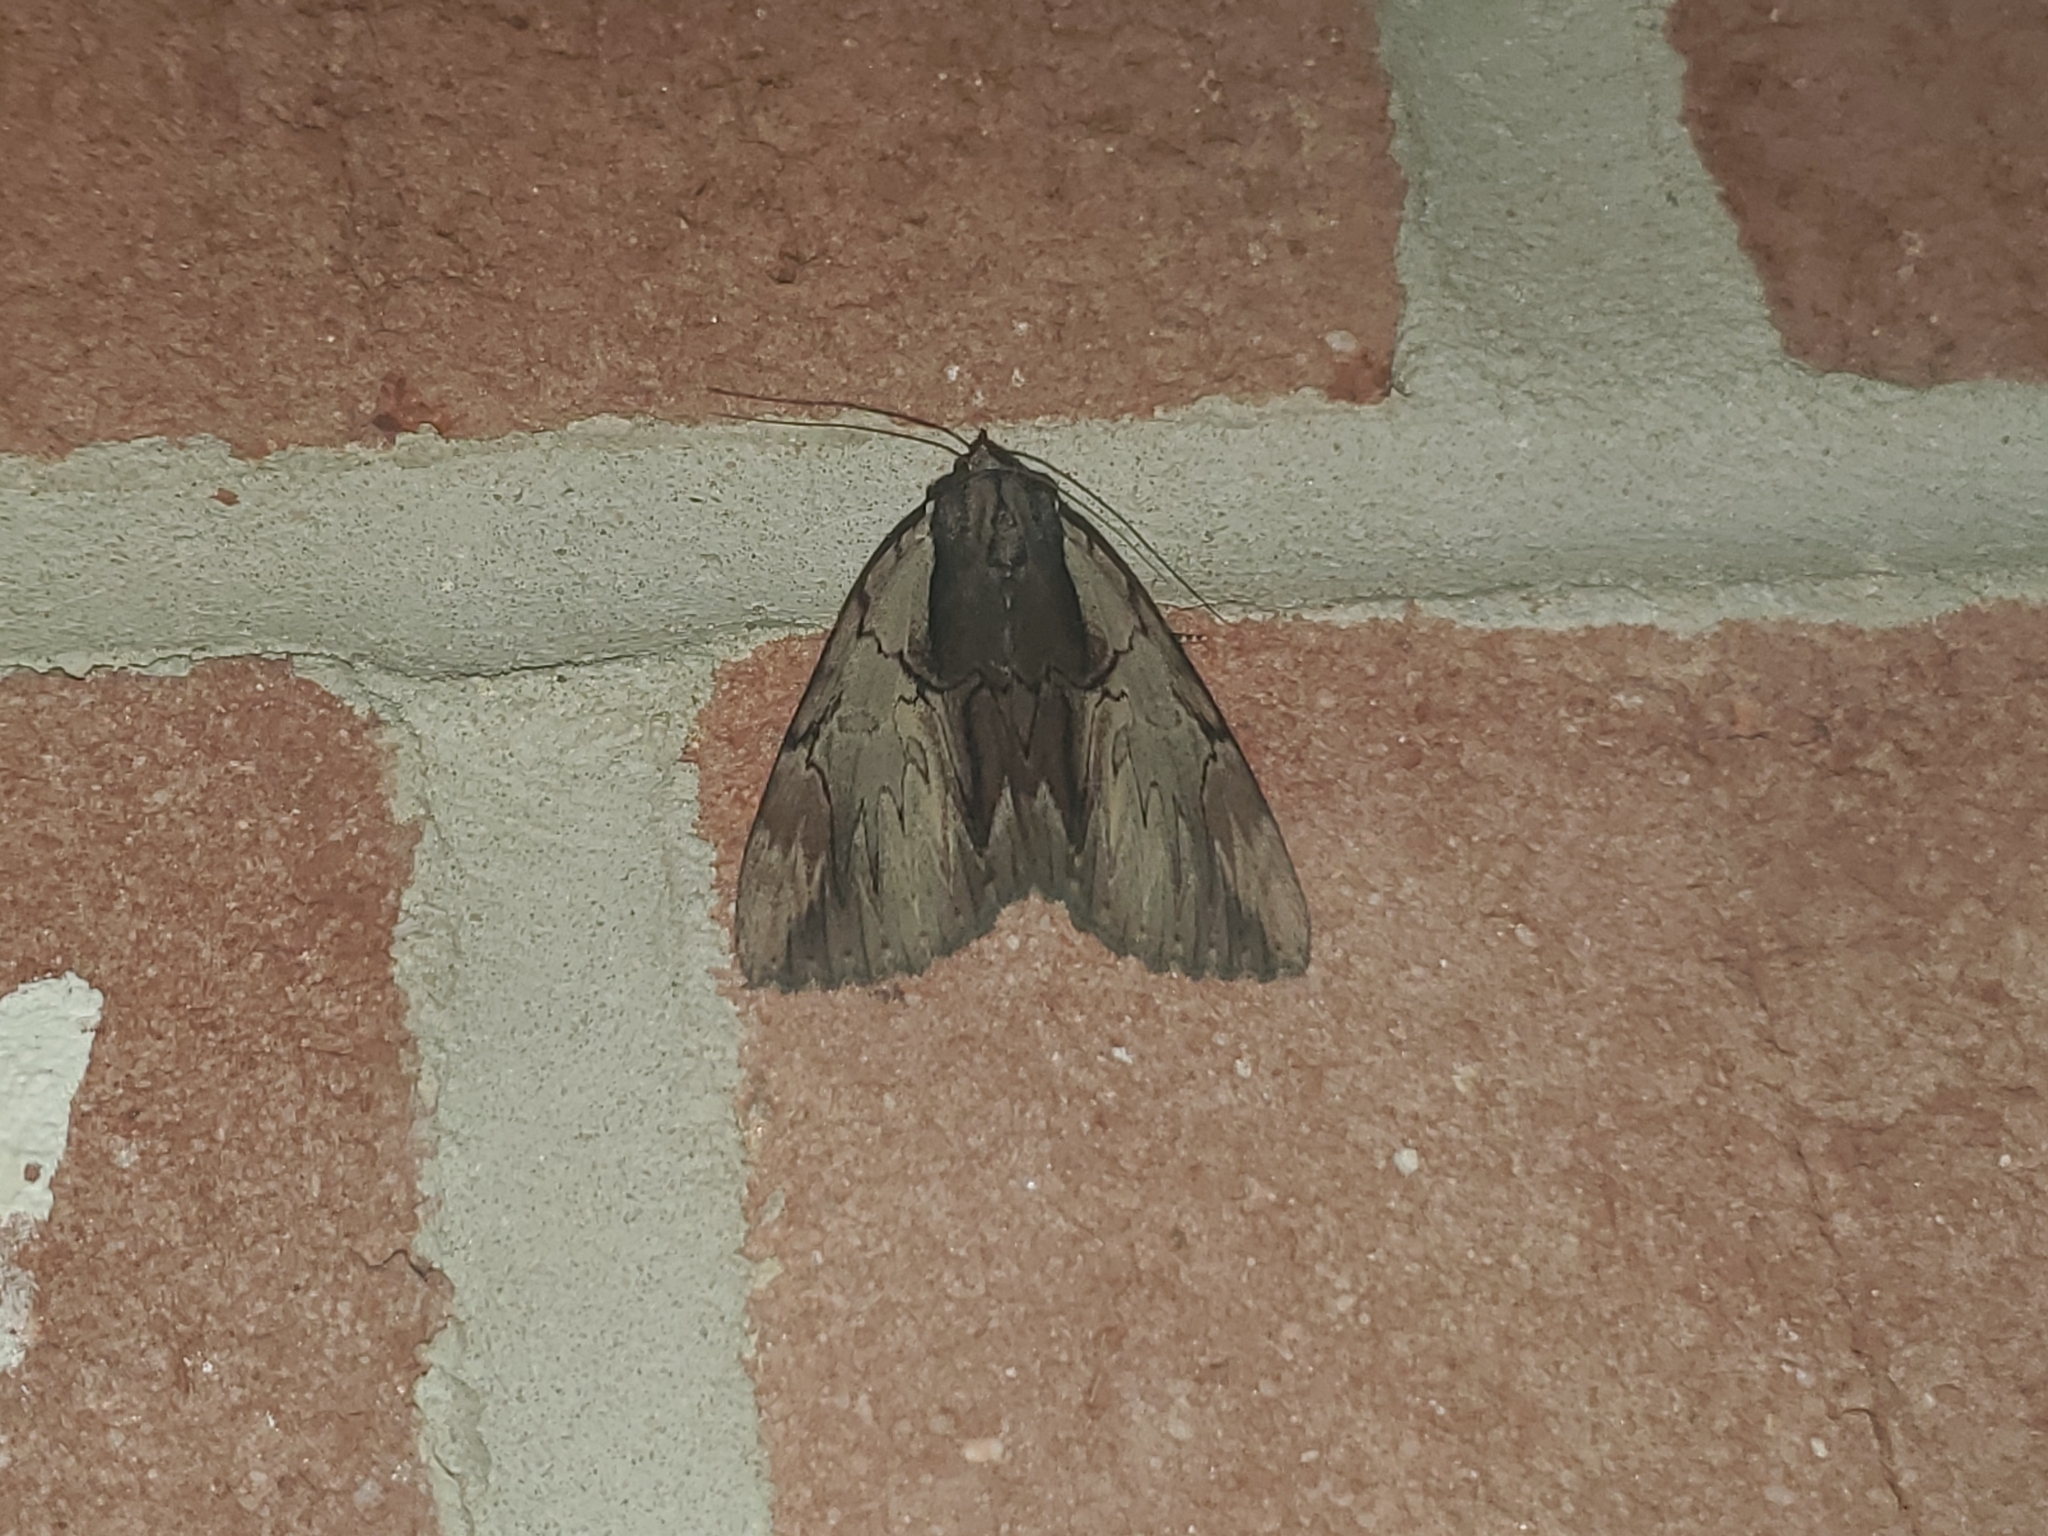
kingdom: Animalia
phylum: Arthropoda
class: Insecta
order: Lepidoptera
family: Erebidae
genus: Catocala
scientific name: Catocala ultronia
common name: Ultronia underwing
